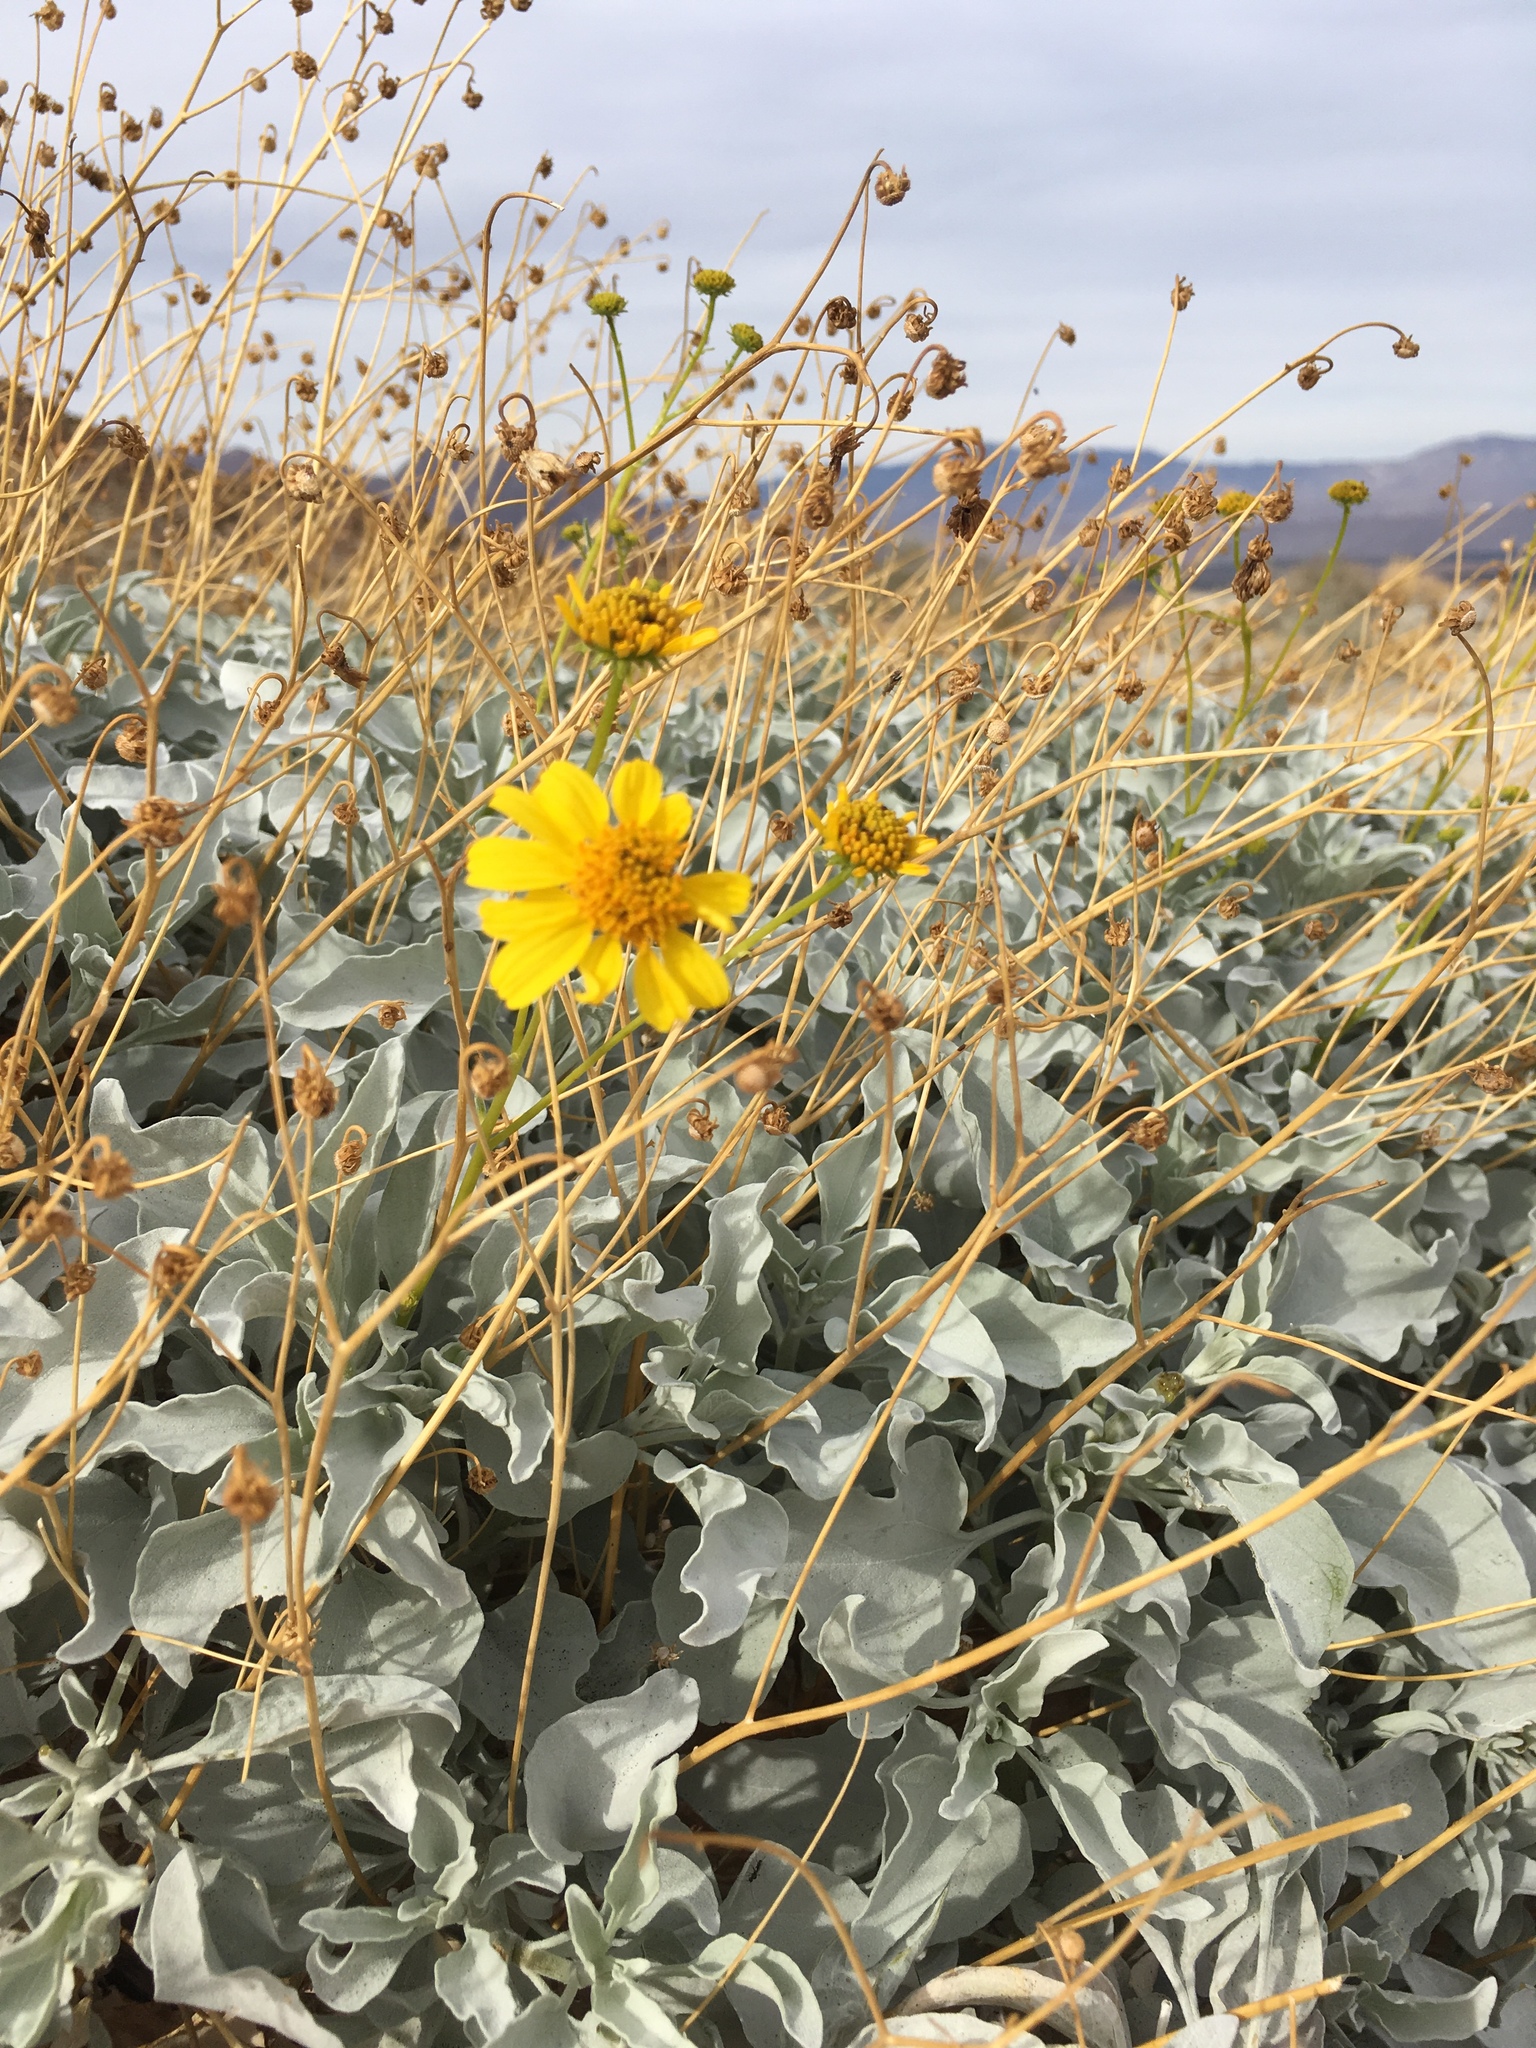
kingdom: Plantae
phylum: Tracheophyta
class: Magnoliopsida
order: Asterales
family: Asteraceae
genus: Encelia
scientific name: Encelia farinosa
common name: Brittlebush
